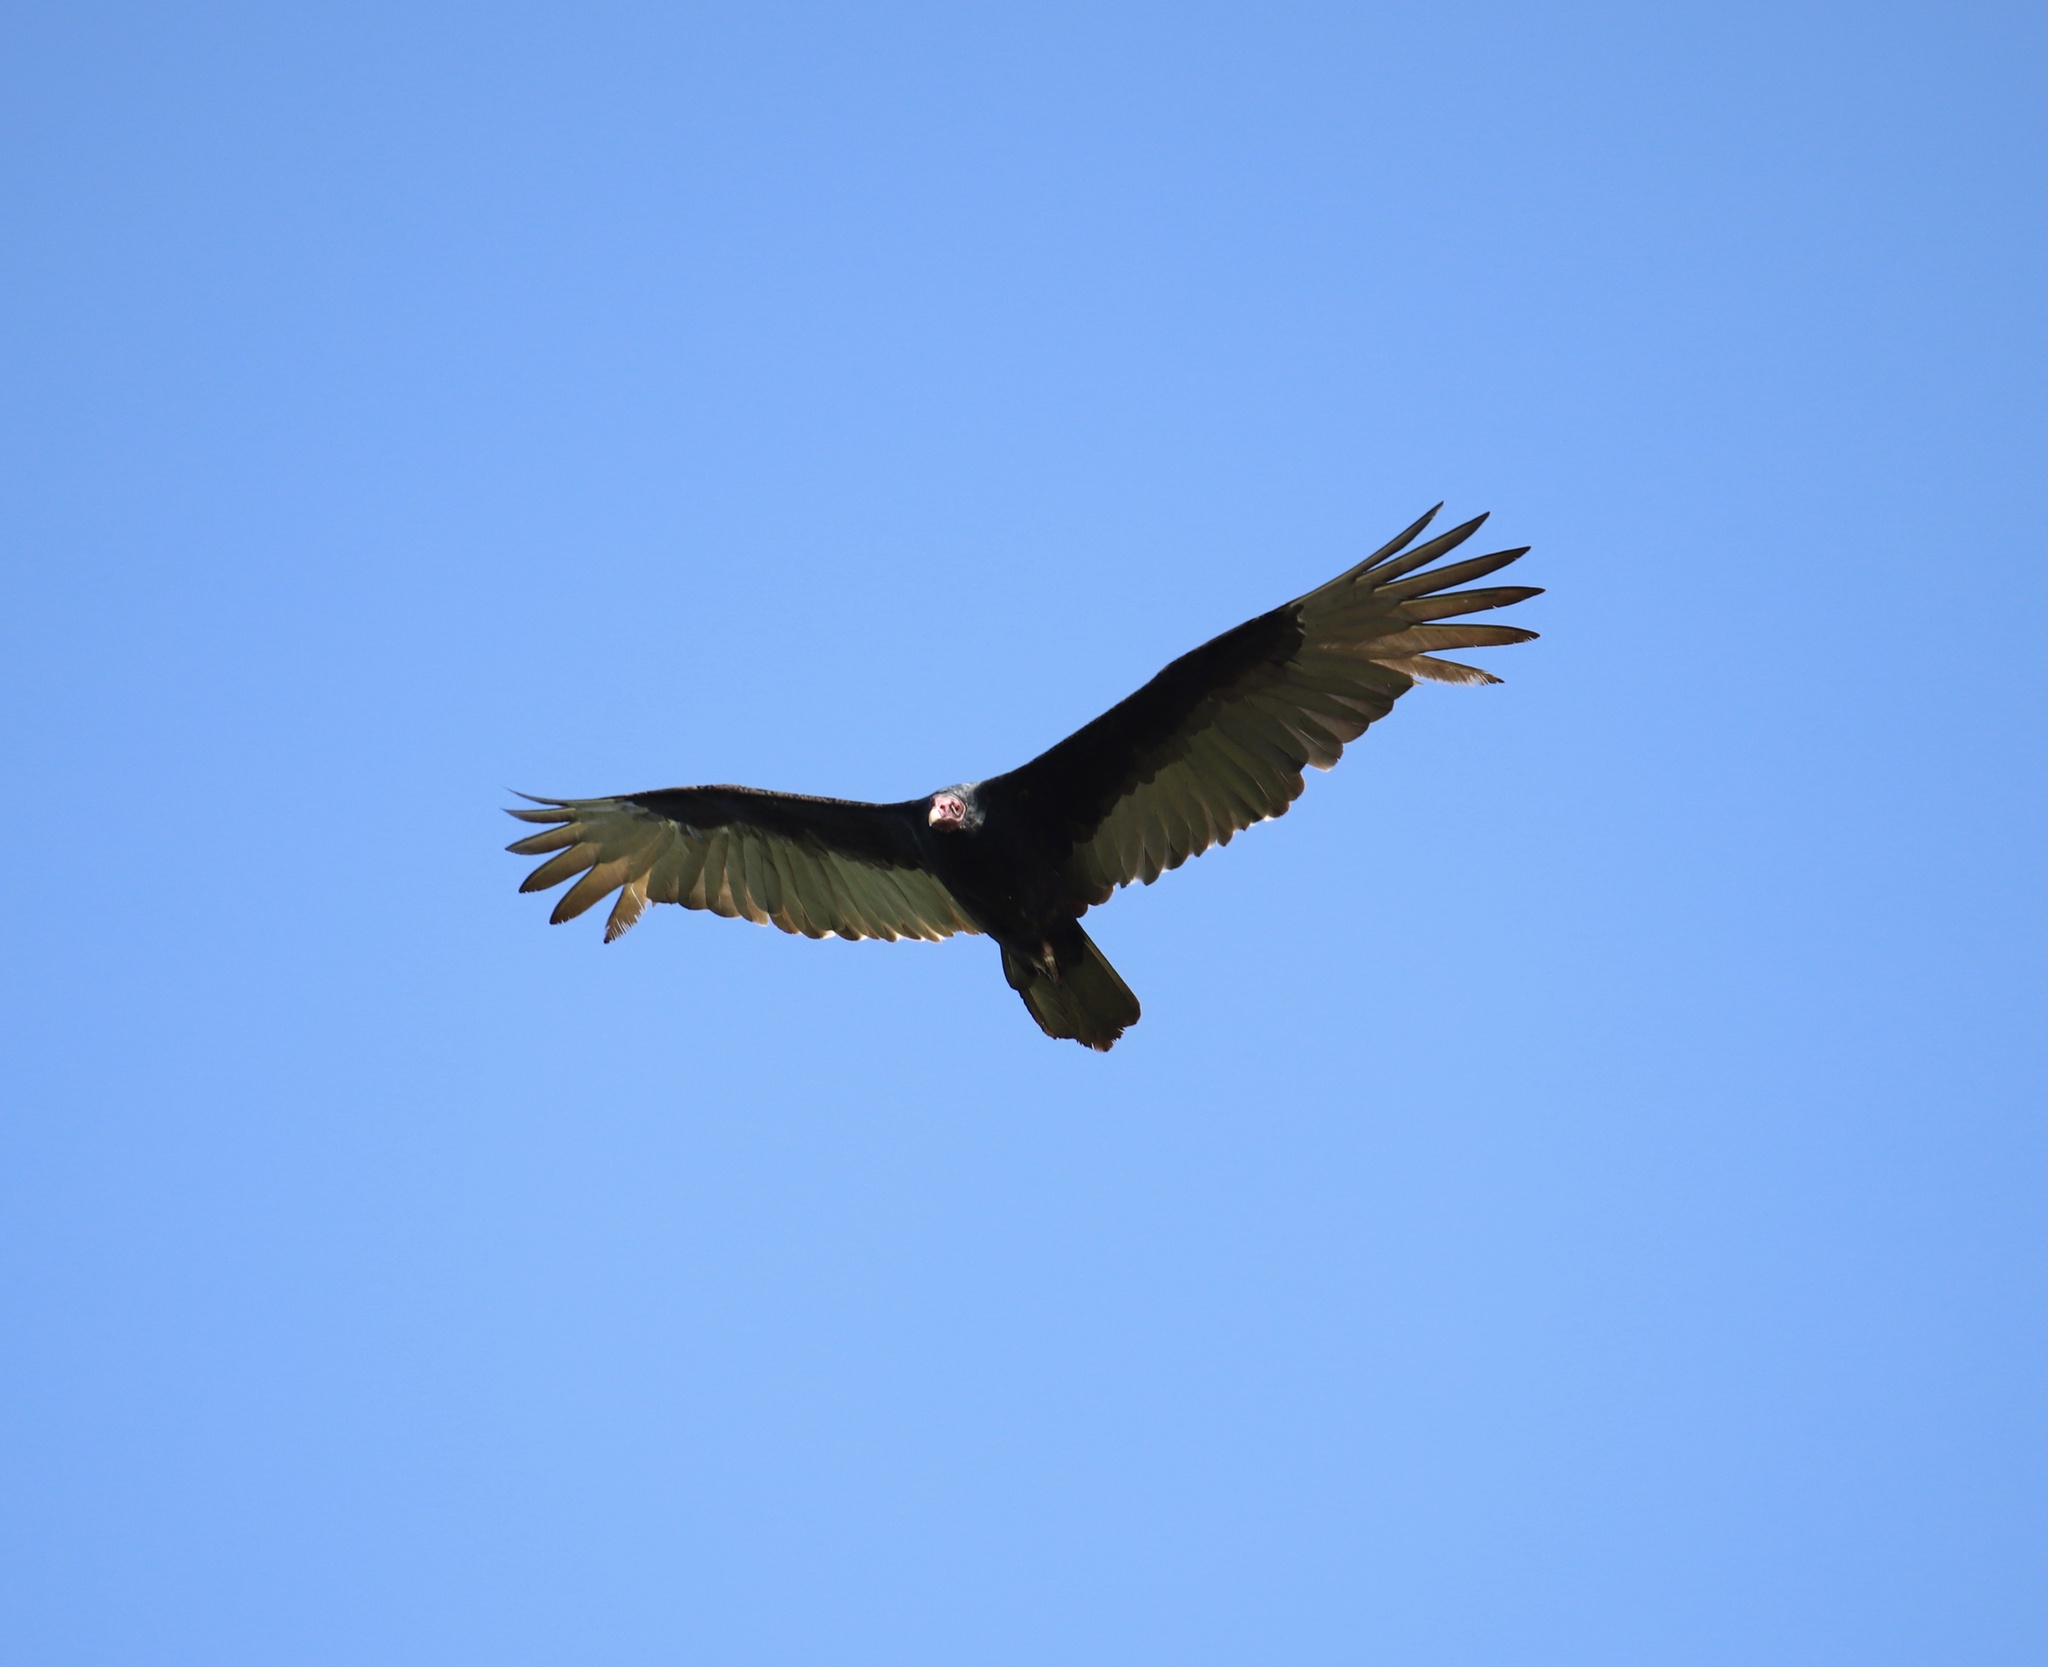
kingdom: Animalia
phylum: Chordata
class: Aves
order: Accipitriformes
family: Cathartidae
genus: Cathartes
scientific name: Cathartes aura
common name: Turkey vulture
